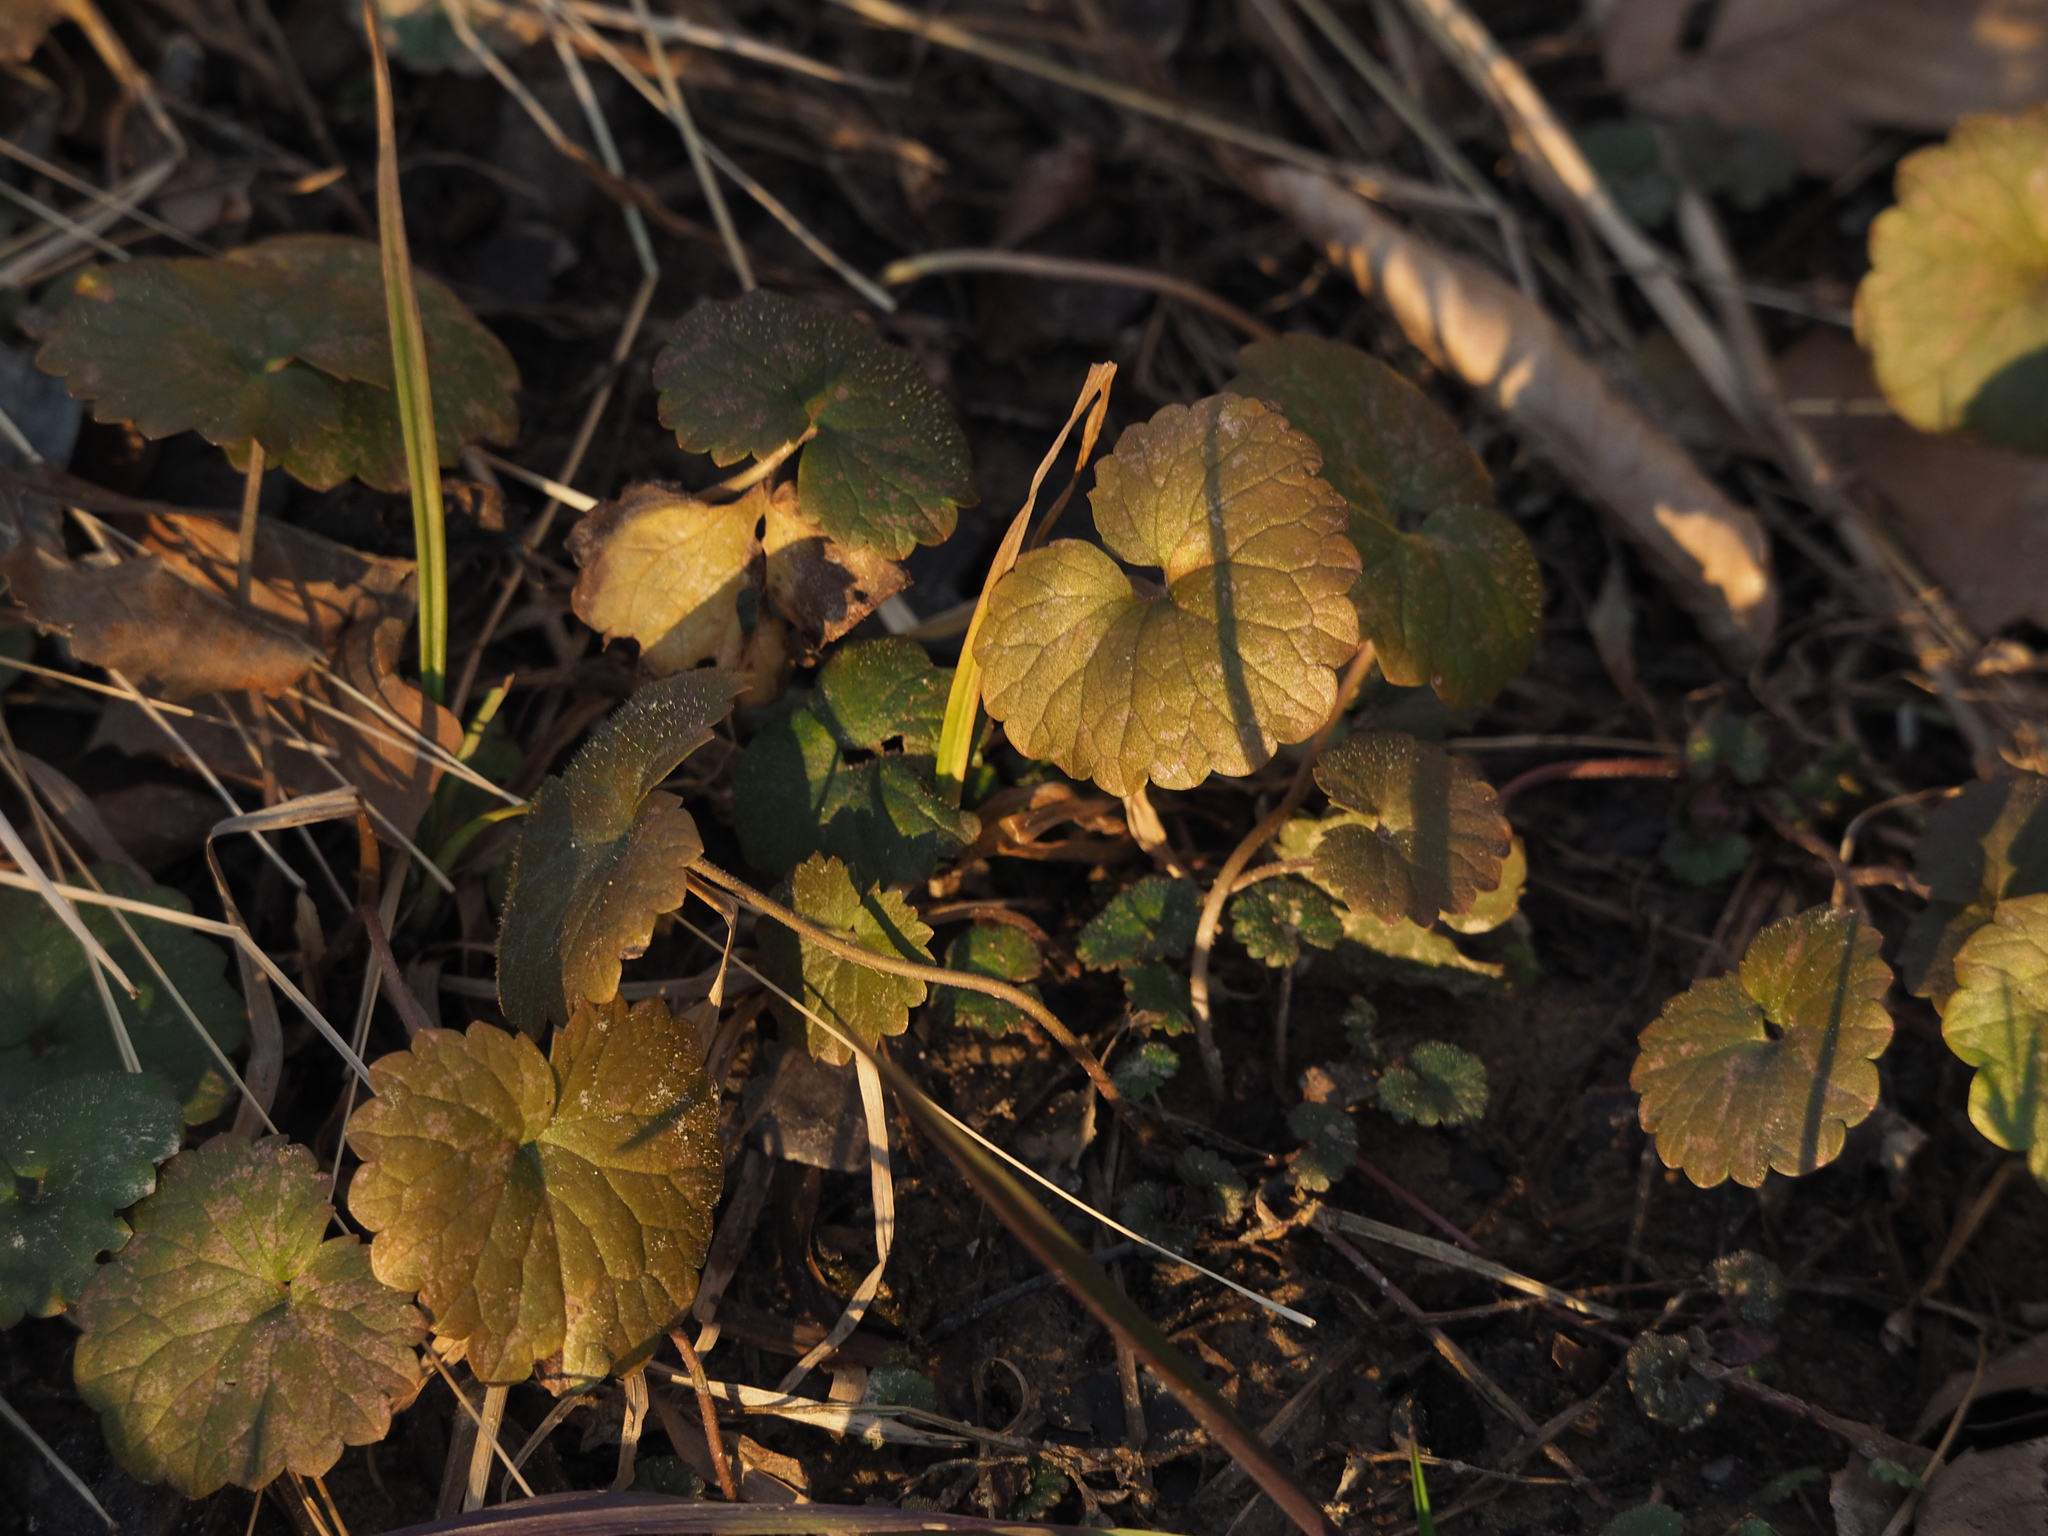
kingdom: Plantae
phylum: Tracheophyta
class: Magnoliopsida
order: Lamiales
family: Lamiaceae
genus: Glechoma
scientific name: Glechoma hederacea
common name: Ground ivy
